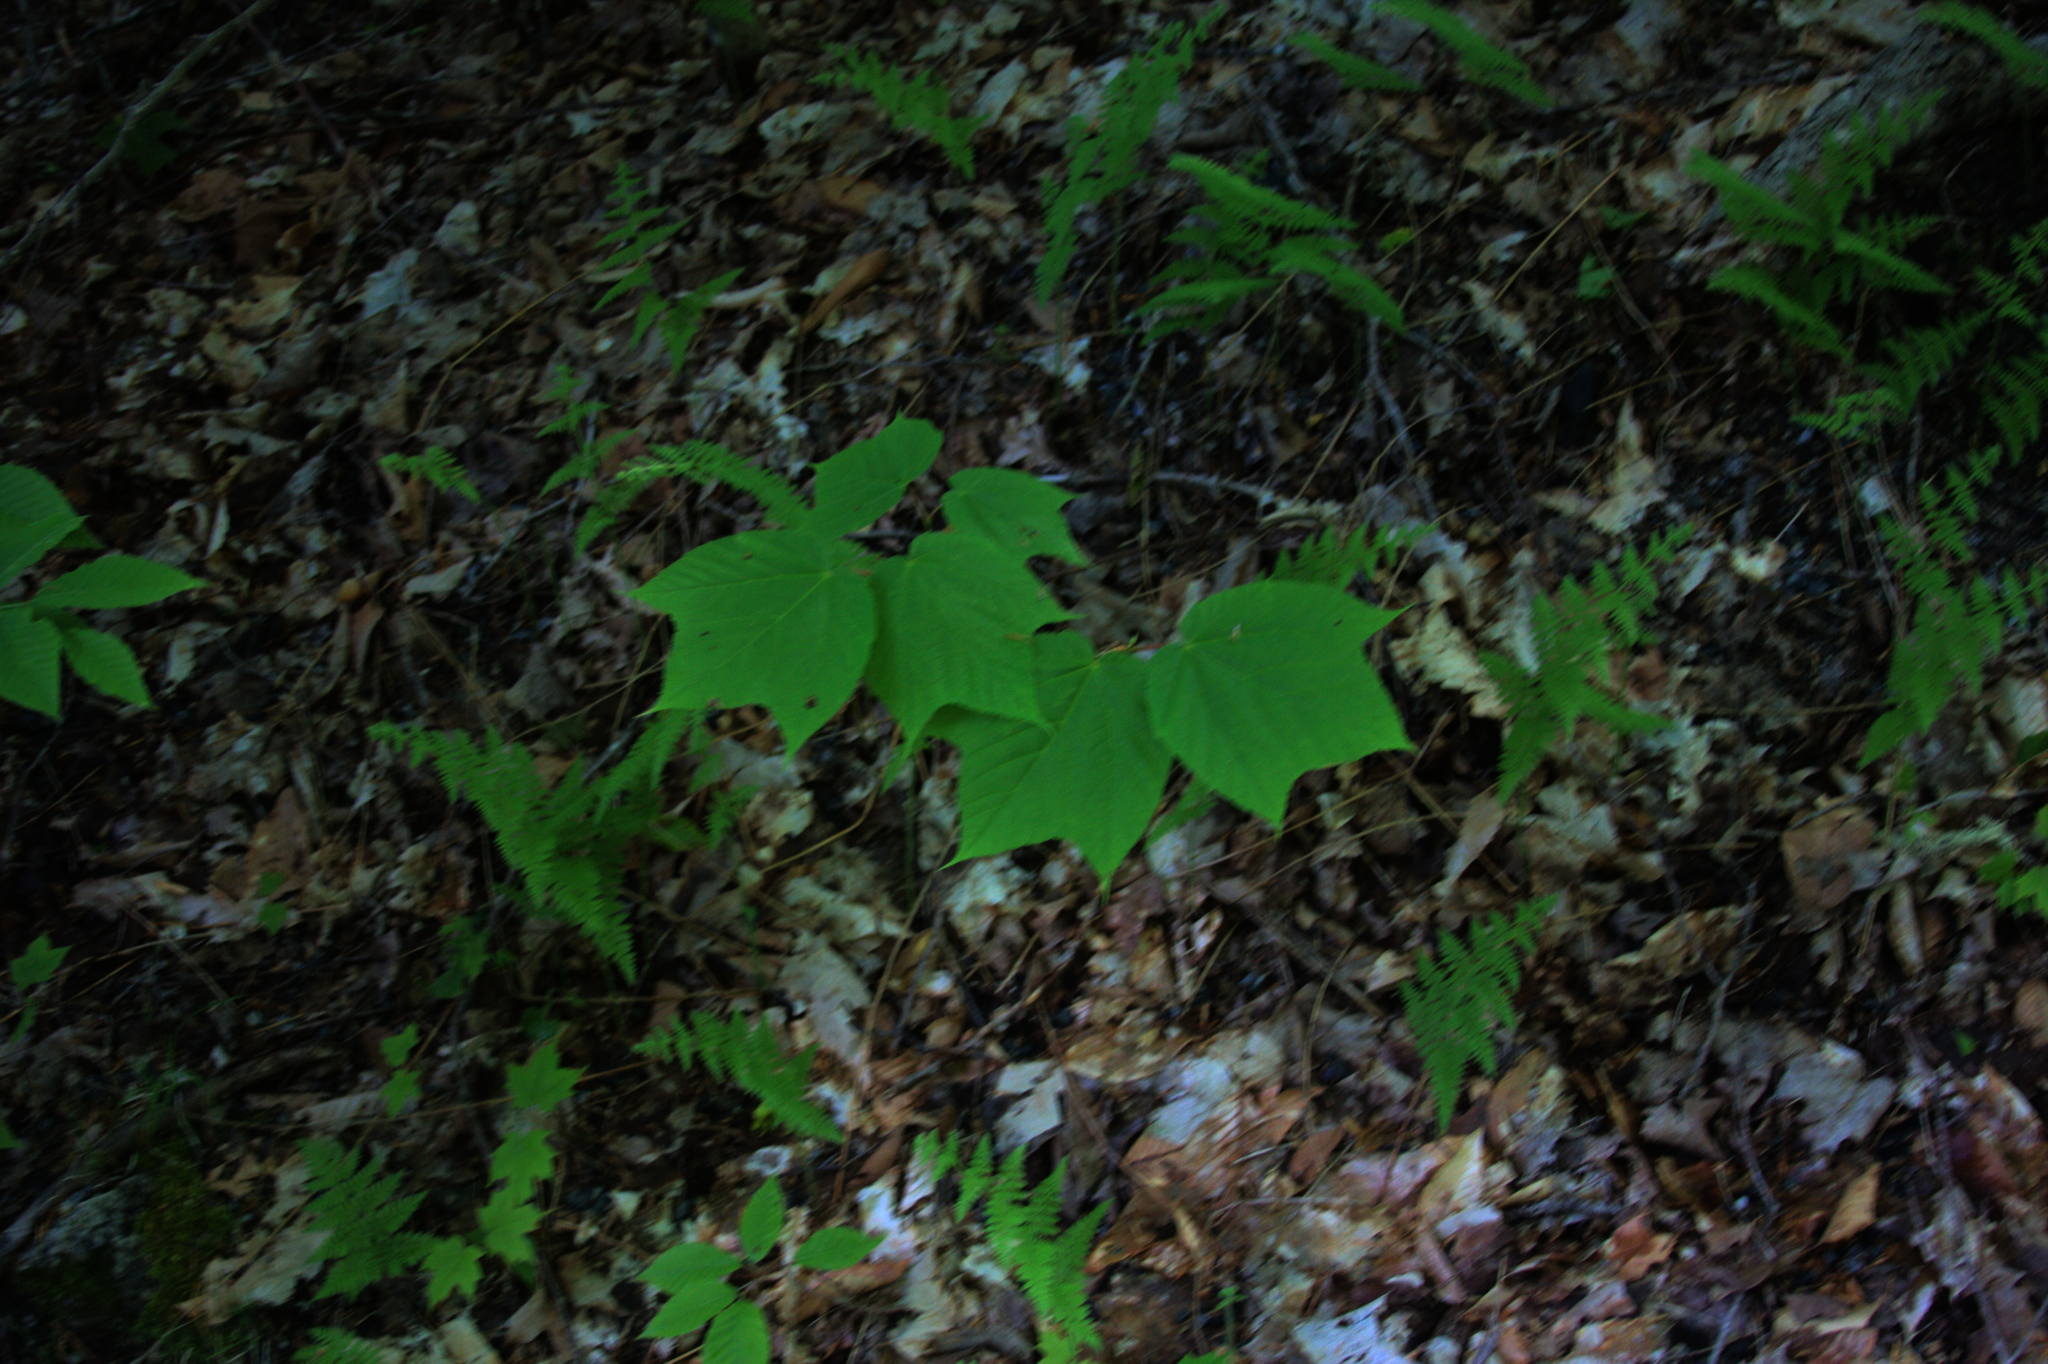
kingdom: Plantae
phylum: Tracheophyta
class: Magnoliopsida
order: Sapindales
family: Sapindaceae
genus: Acer
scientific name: Acer pensylvanicum
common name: Moosewood
